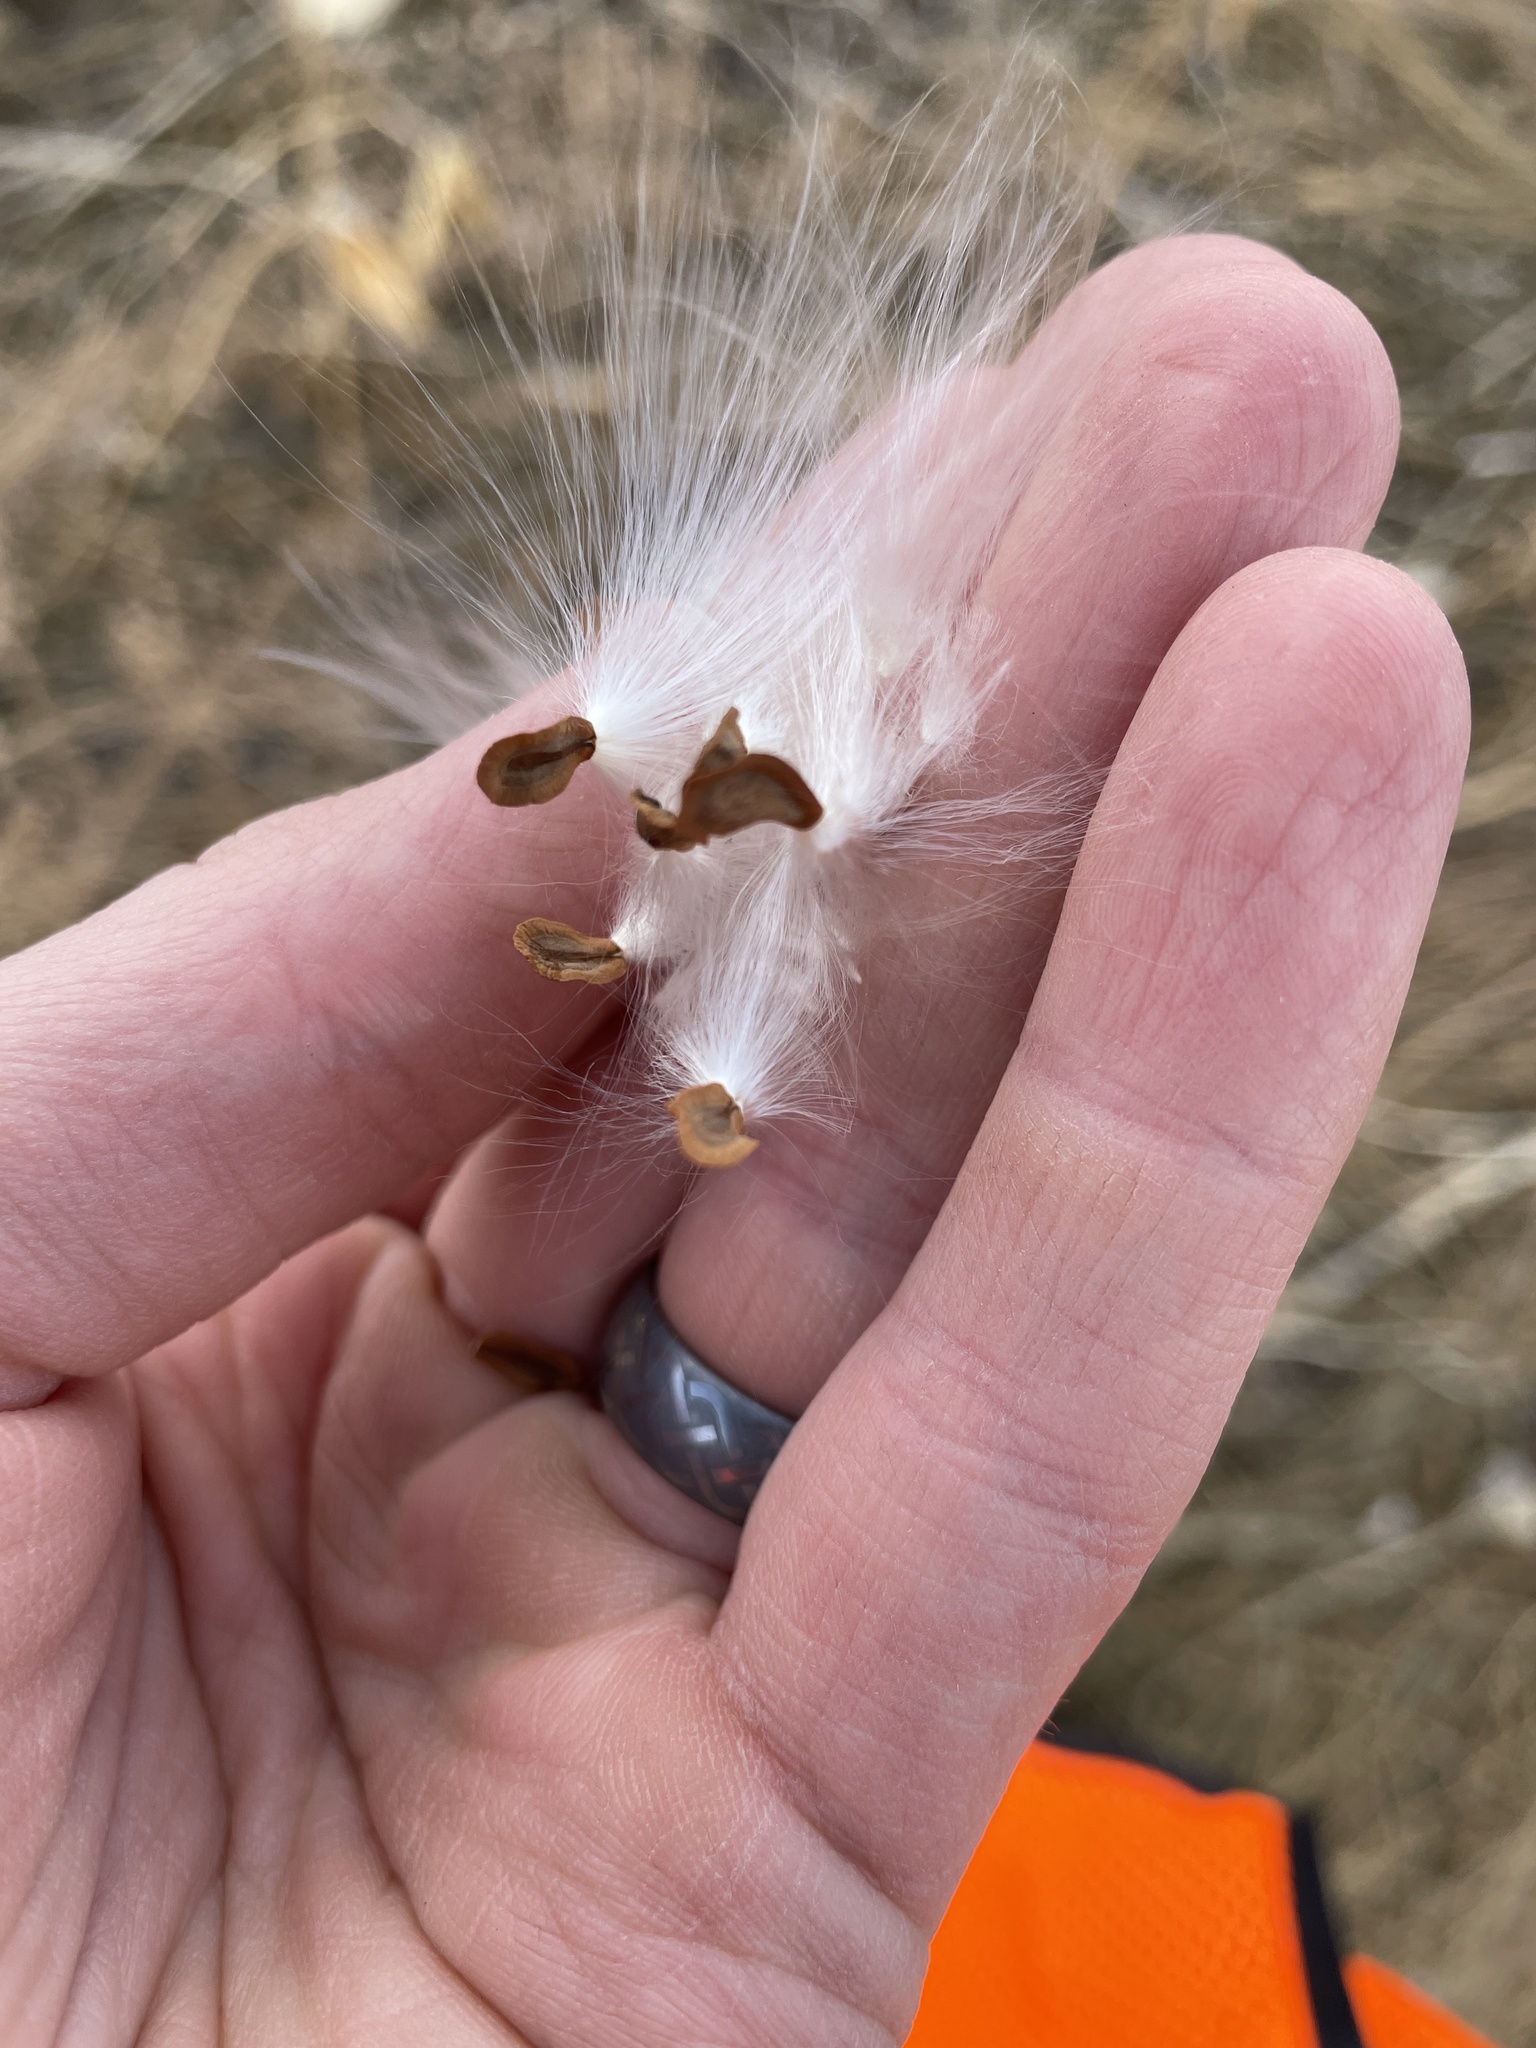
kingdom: Plantae
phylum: Tracheophyta
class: Magnoliopsida
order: Gentianales
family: Apocynaceae
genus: Asclepias
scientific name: Asclepias speciosa
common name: Showy milkweed
